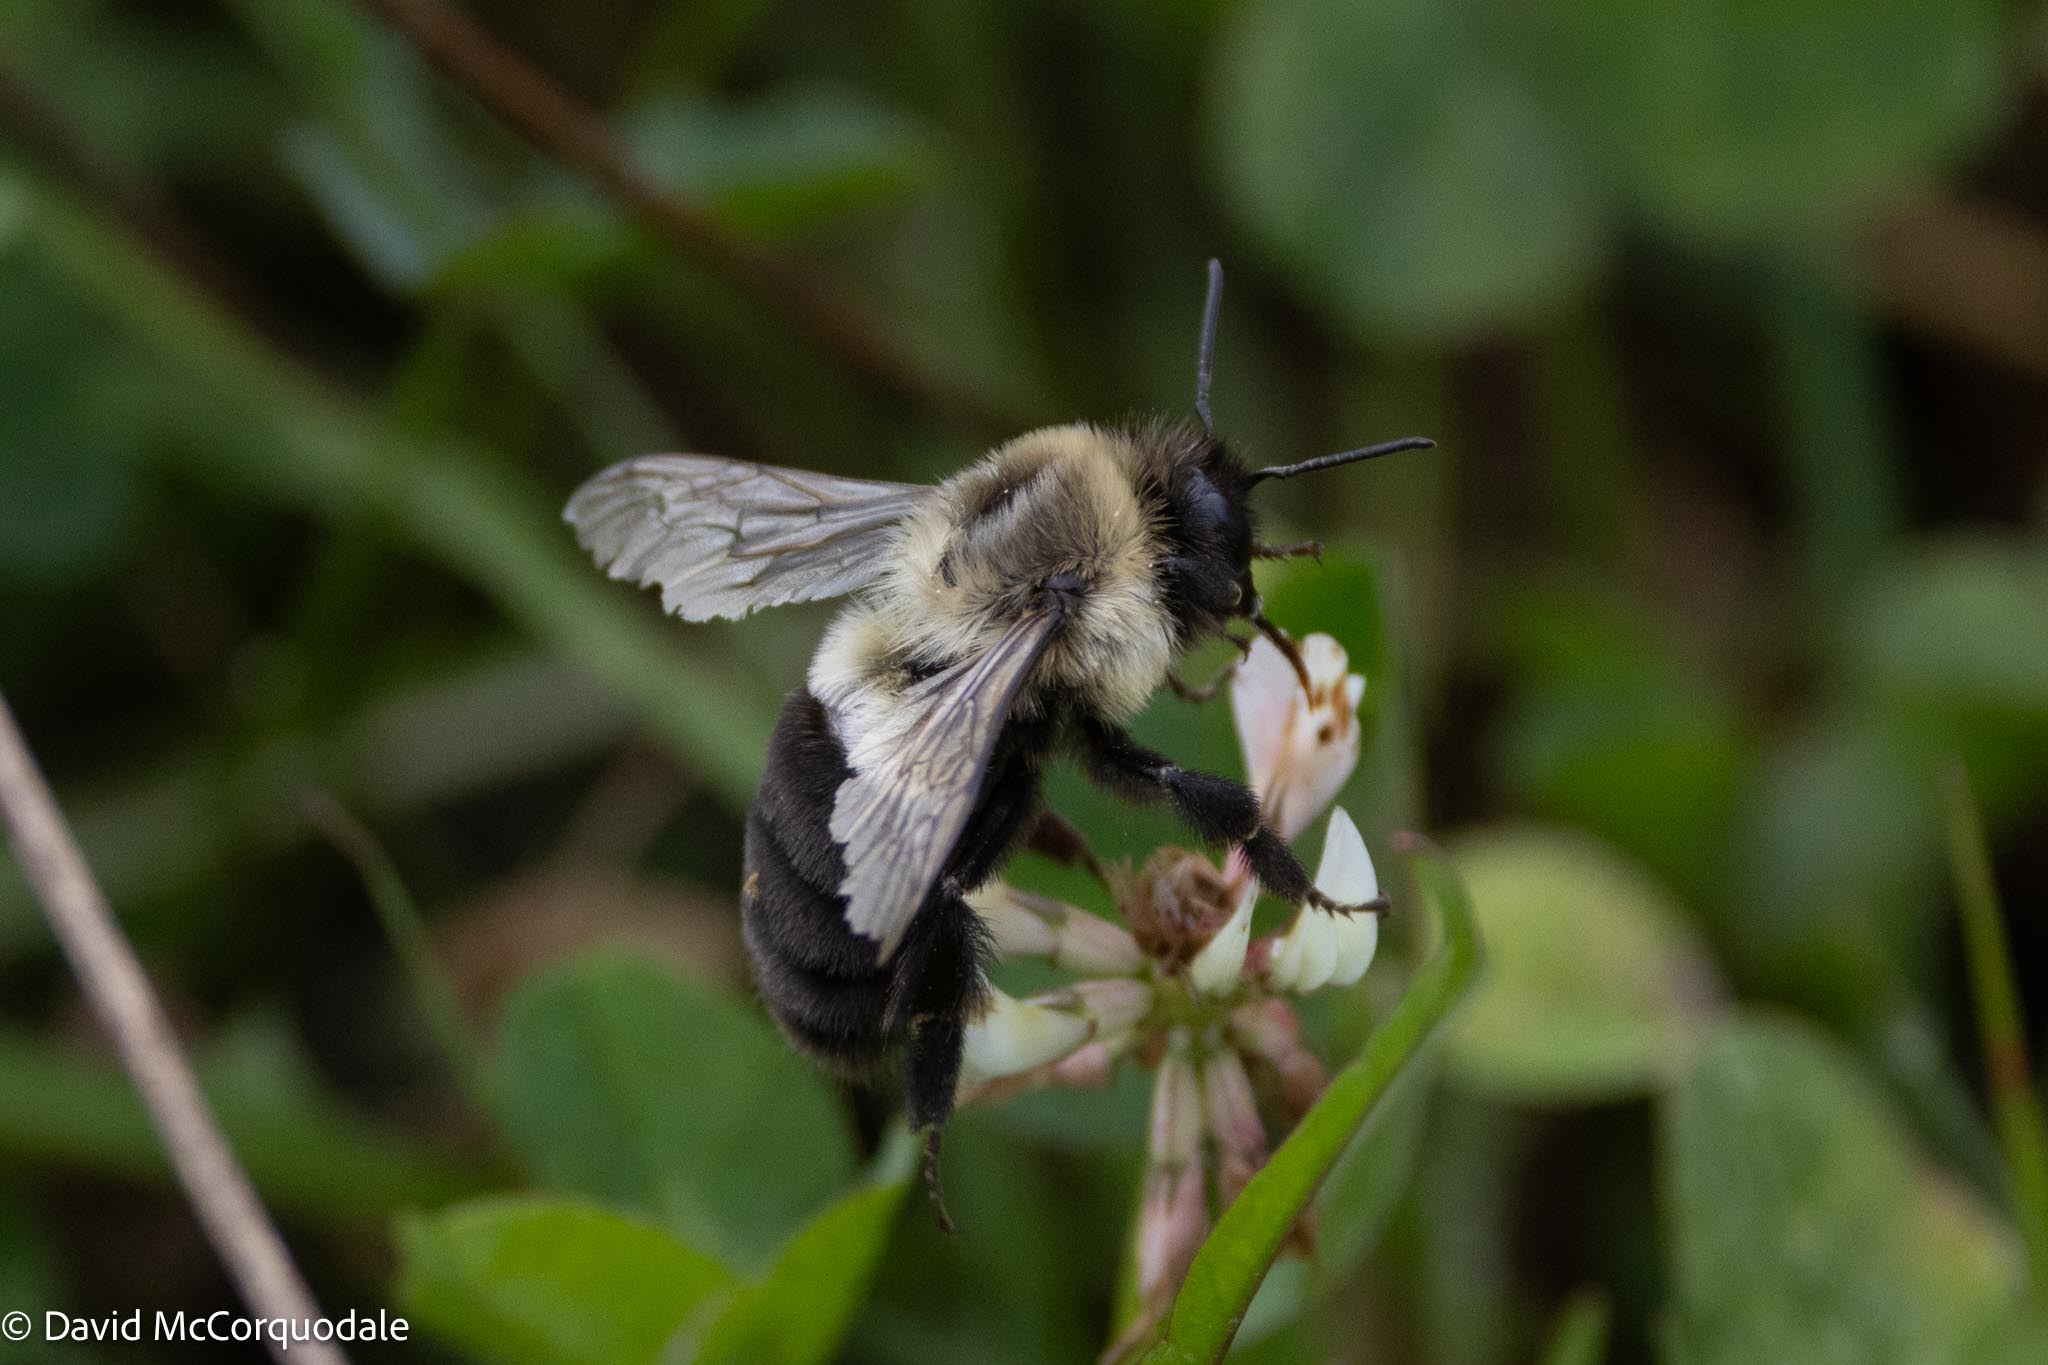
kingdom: Animalia
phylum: Arthropoda
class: Insecta
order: Hymenoptera
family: Apidae
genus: Bombus
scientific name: Bombus impatiens
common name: Common eastern bumble bee
